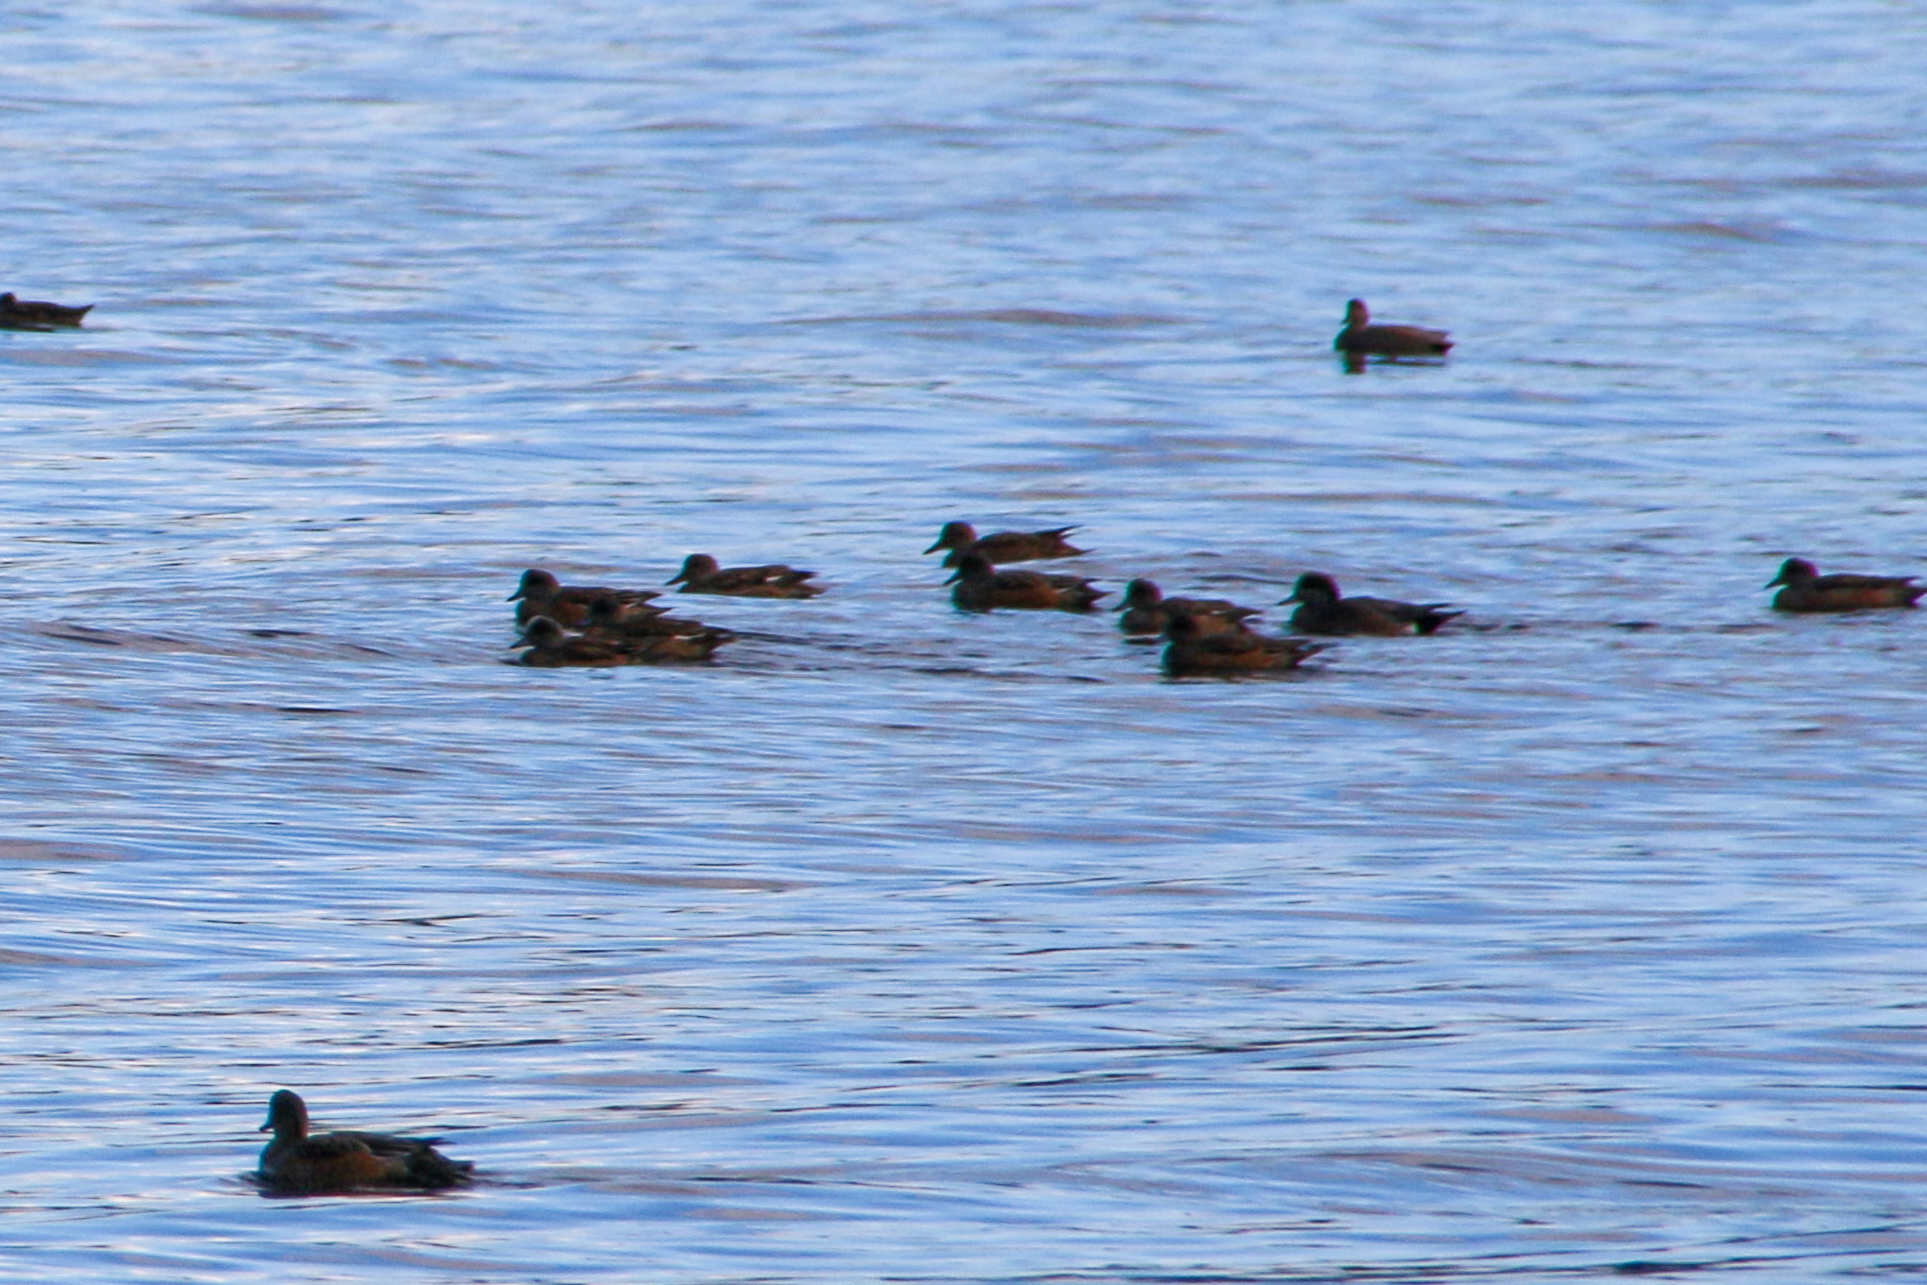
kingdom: Animalia
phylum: Chordata
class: Aves
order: Anseriformes
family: Anatidae
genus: Mareca
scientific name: Mareca americana
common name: American wigeon
